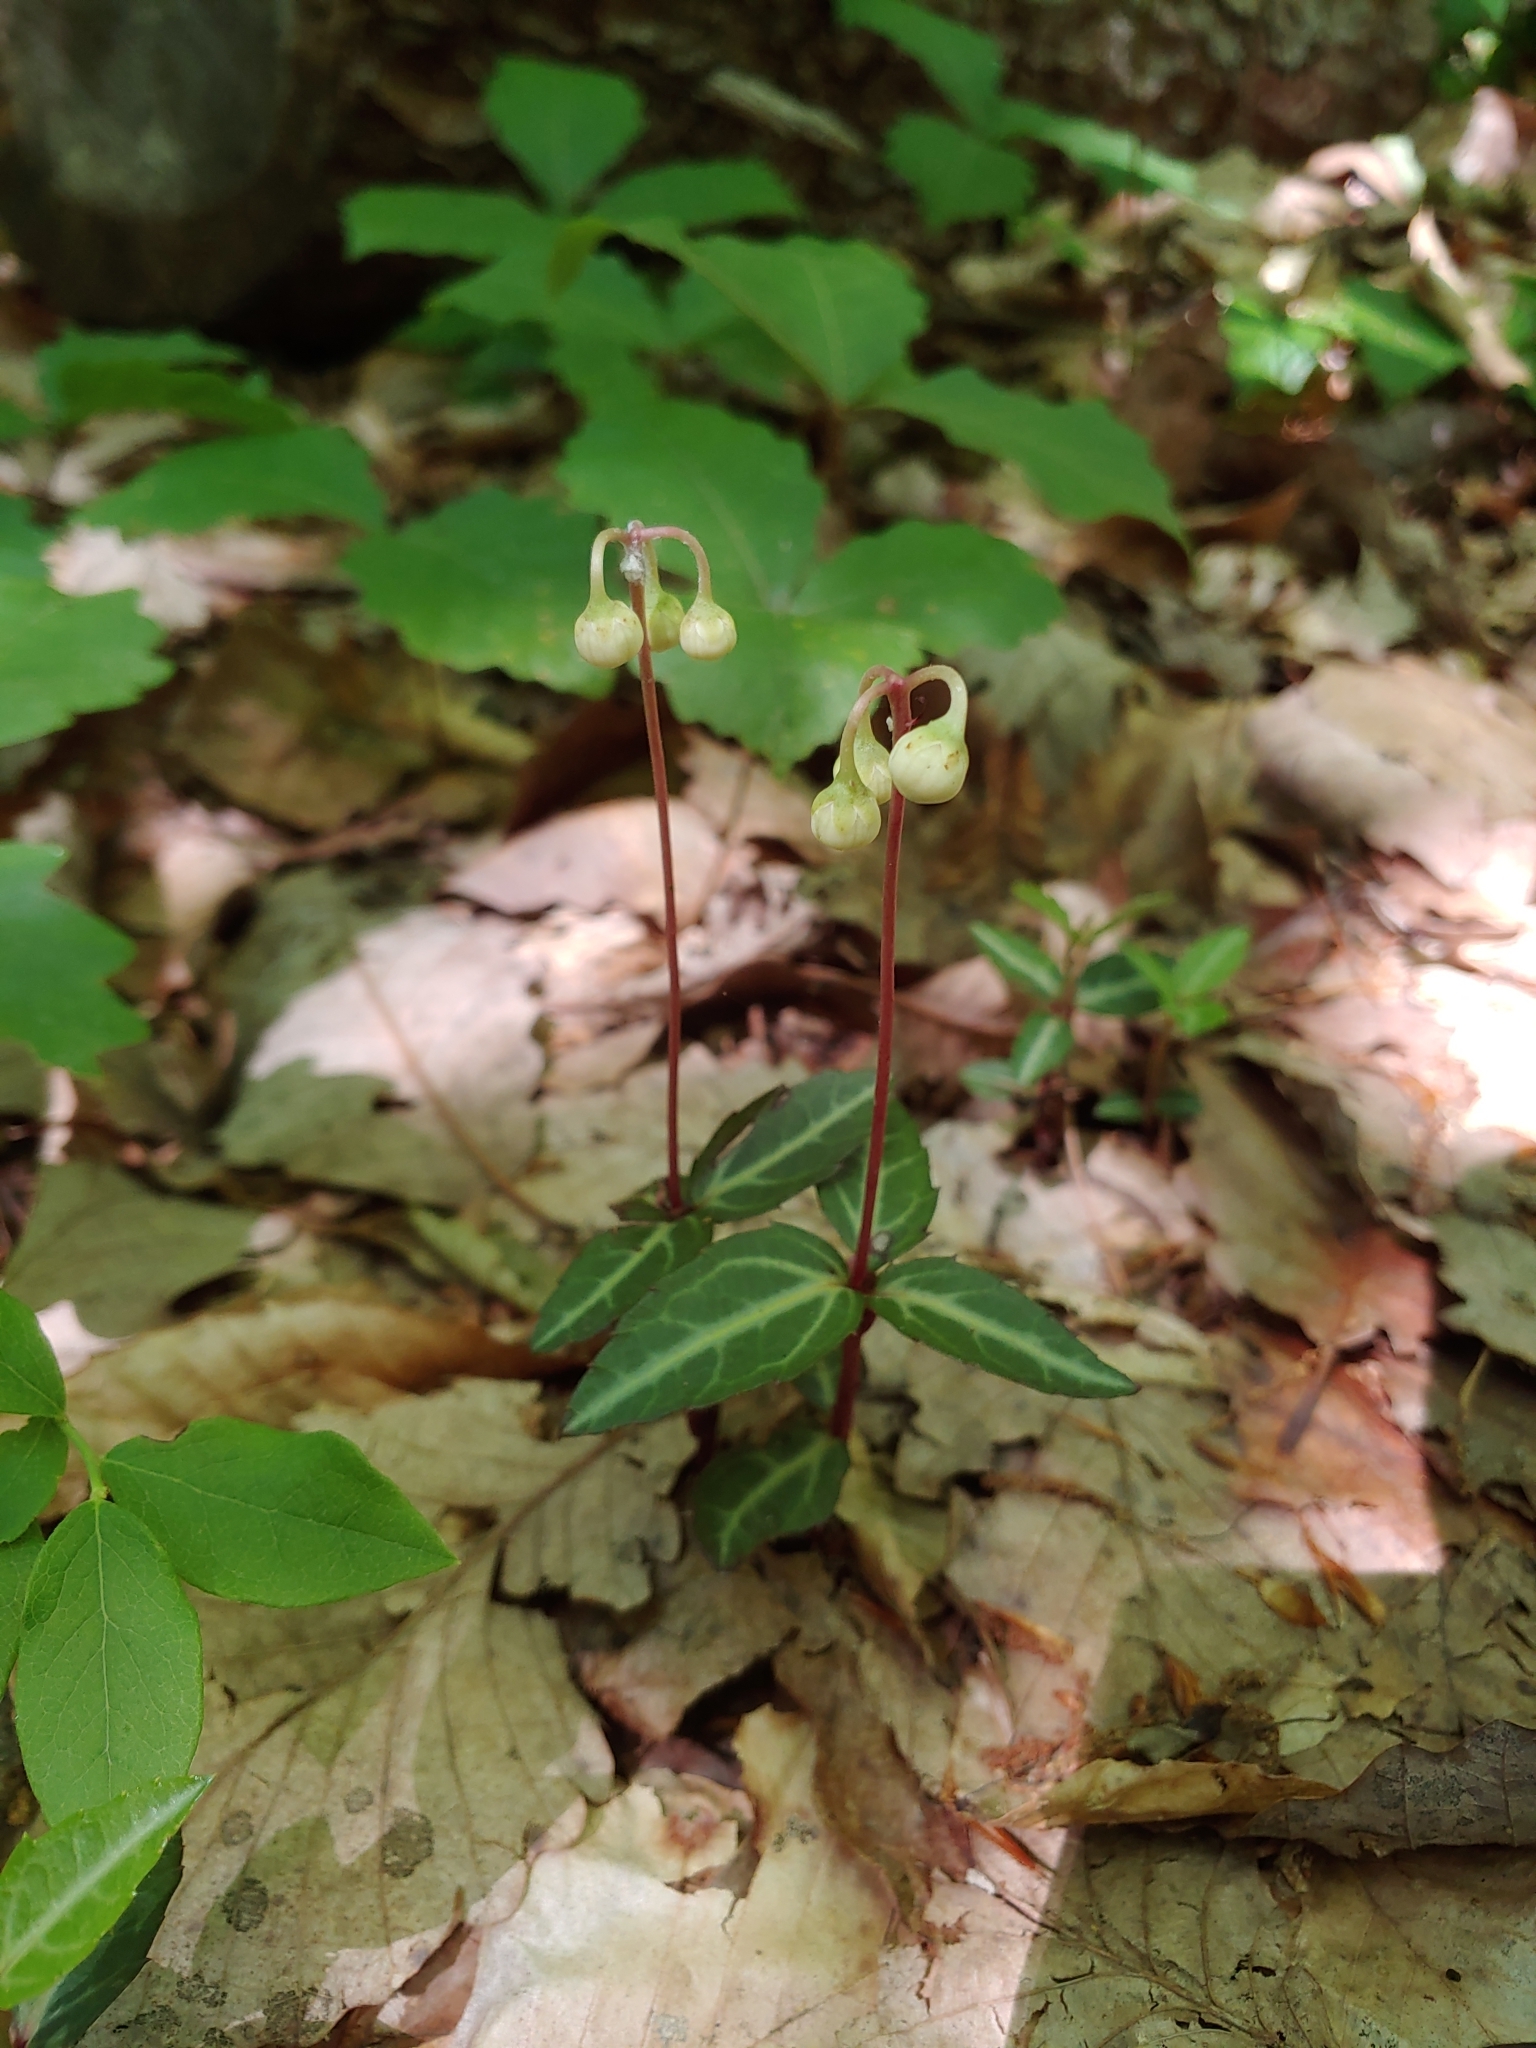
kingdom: Plantae
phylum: Tracheophyta
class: Magnoliopsida
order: Ericales
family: Ericaceae
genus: Chimaphila
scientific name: Chimaphila maculata
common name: Spotted pipsissewa
